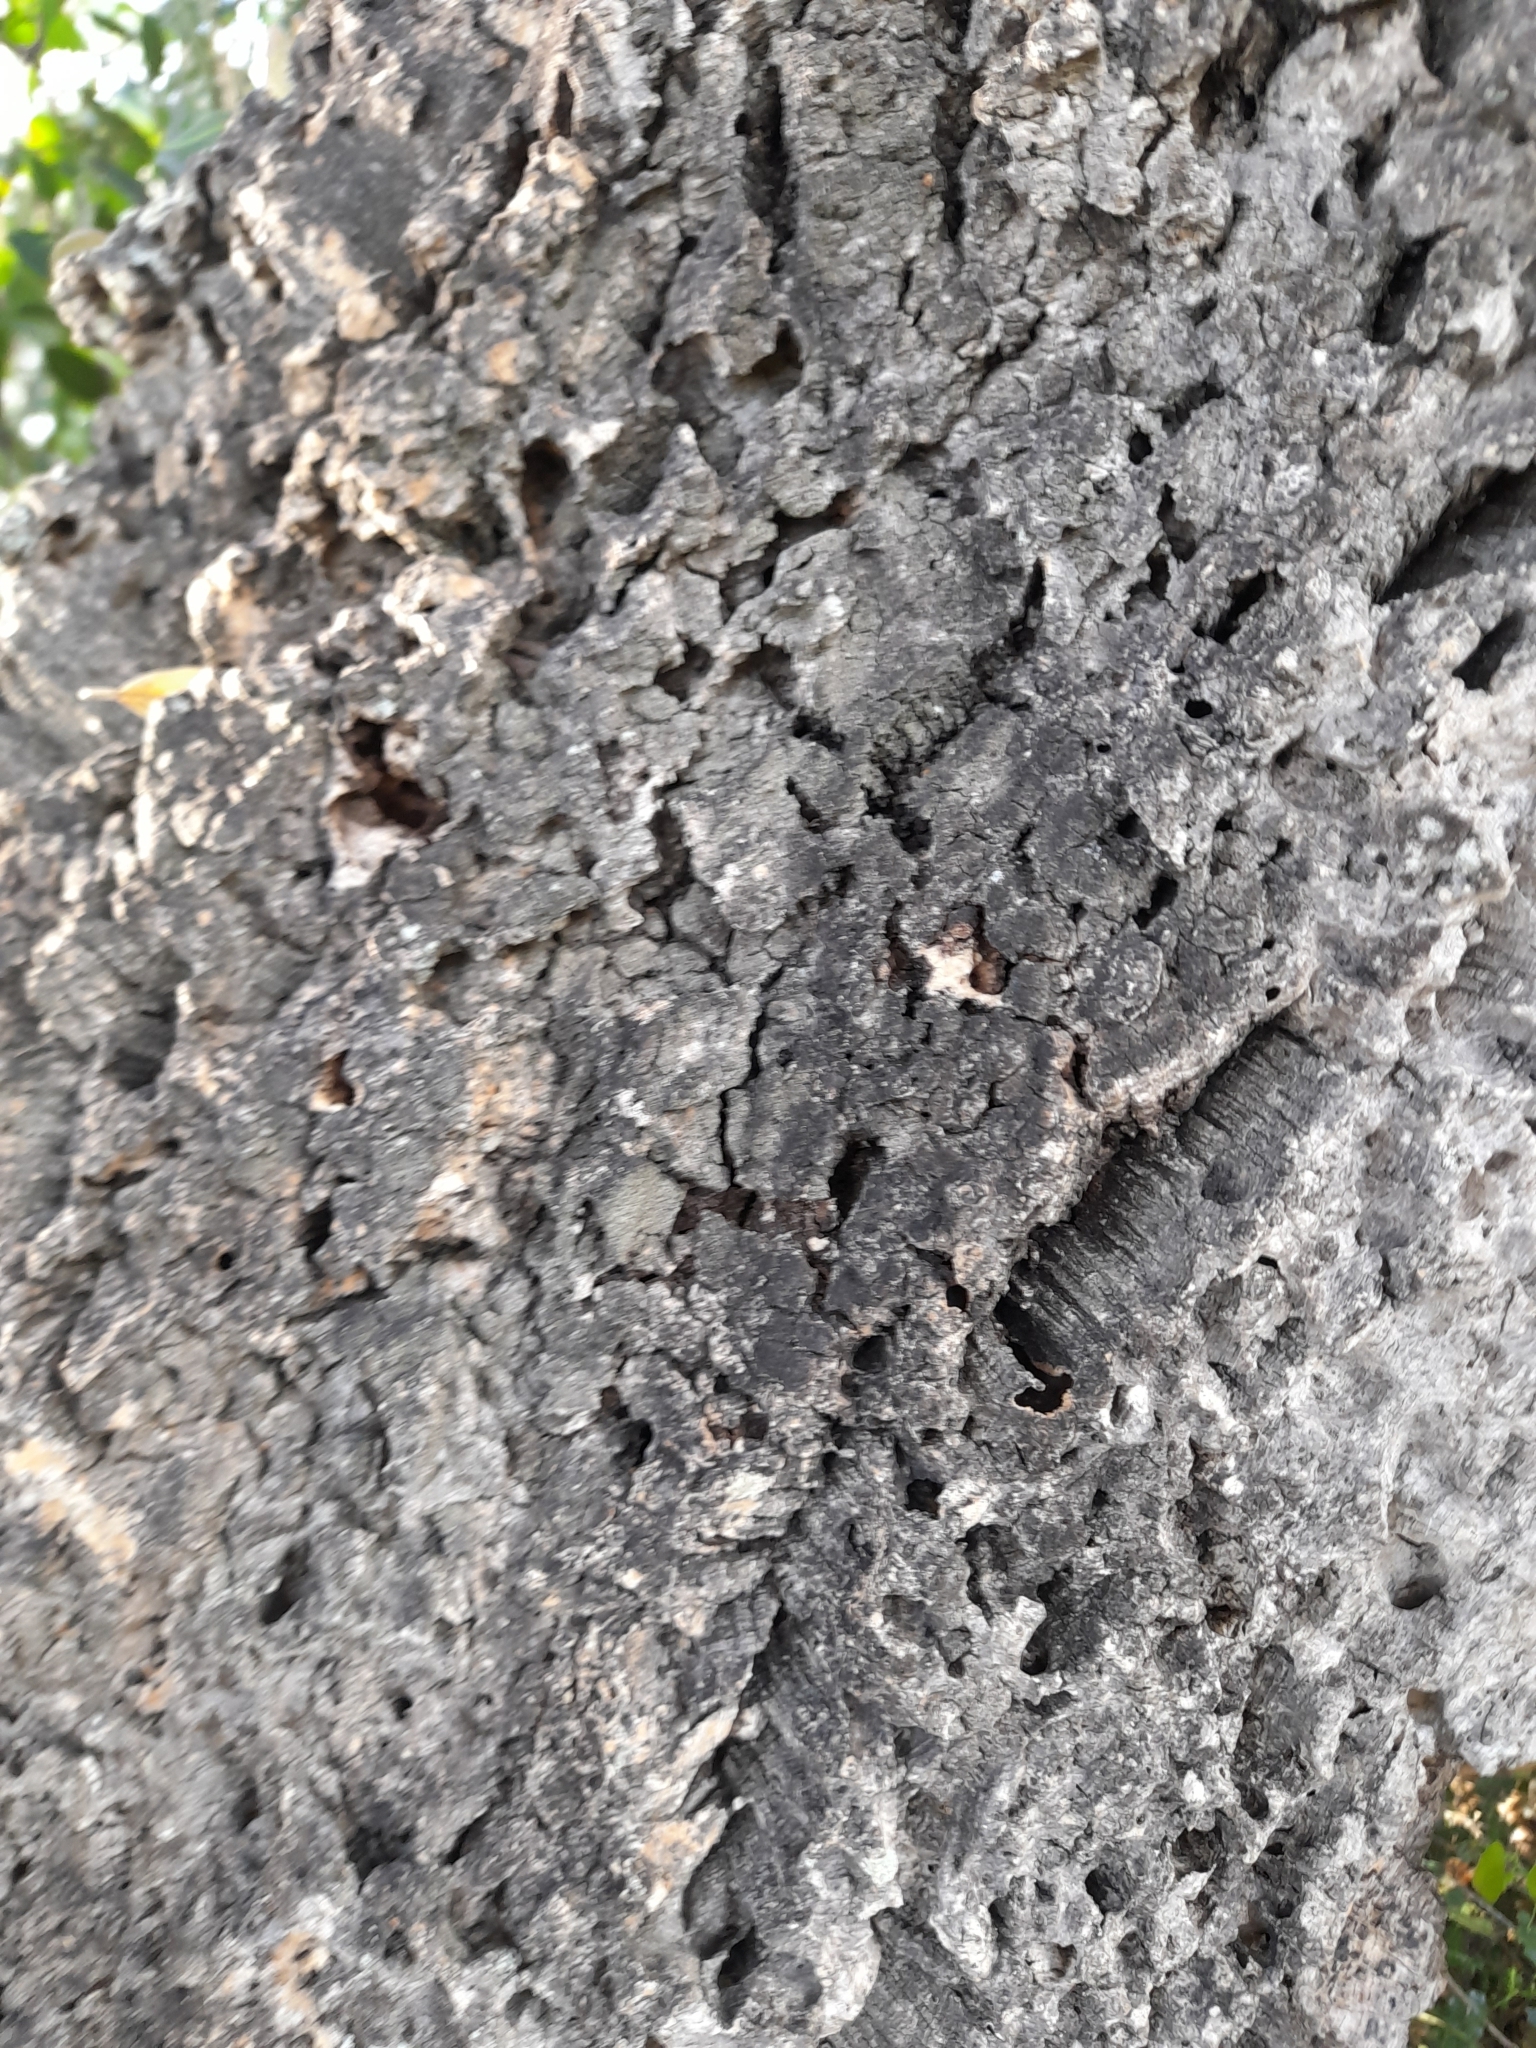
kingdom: Plantae
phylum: Tracheophyta
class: Magnoliopsida
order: Fagales
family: Fagaceae
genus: Quercus
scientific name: Quercus suber
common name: Cork oak
